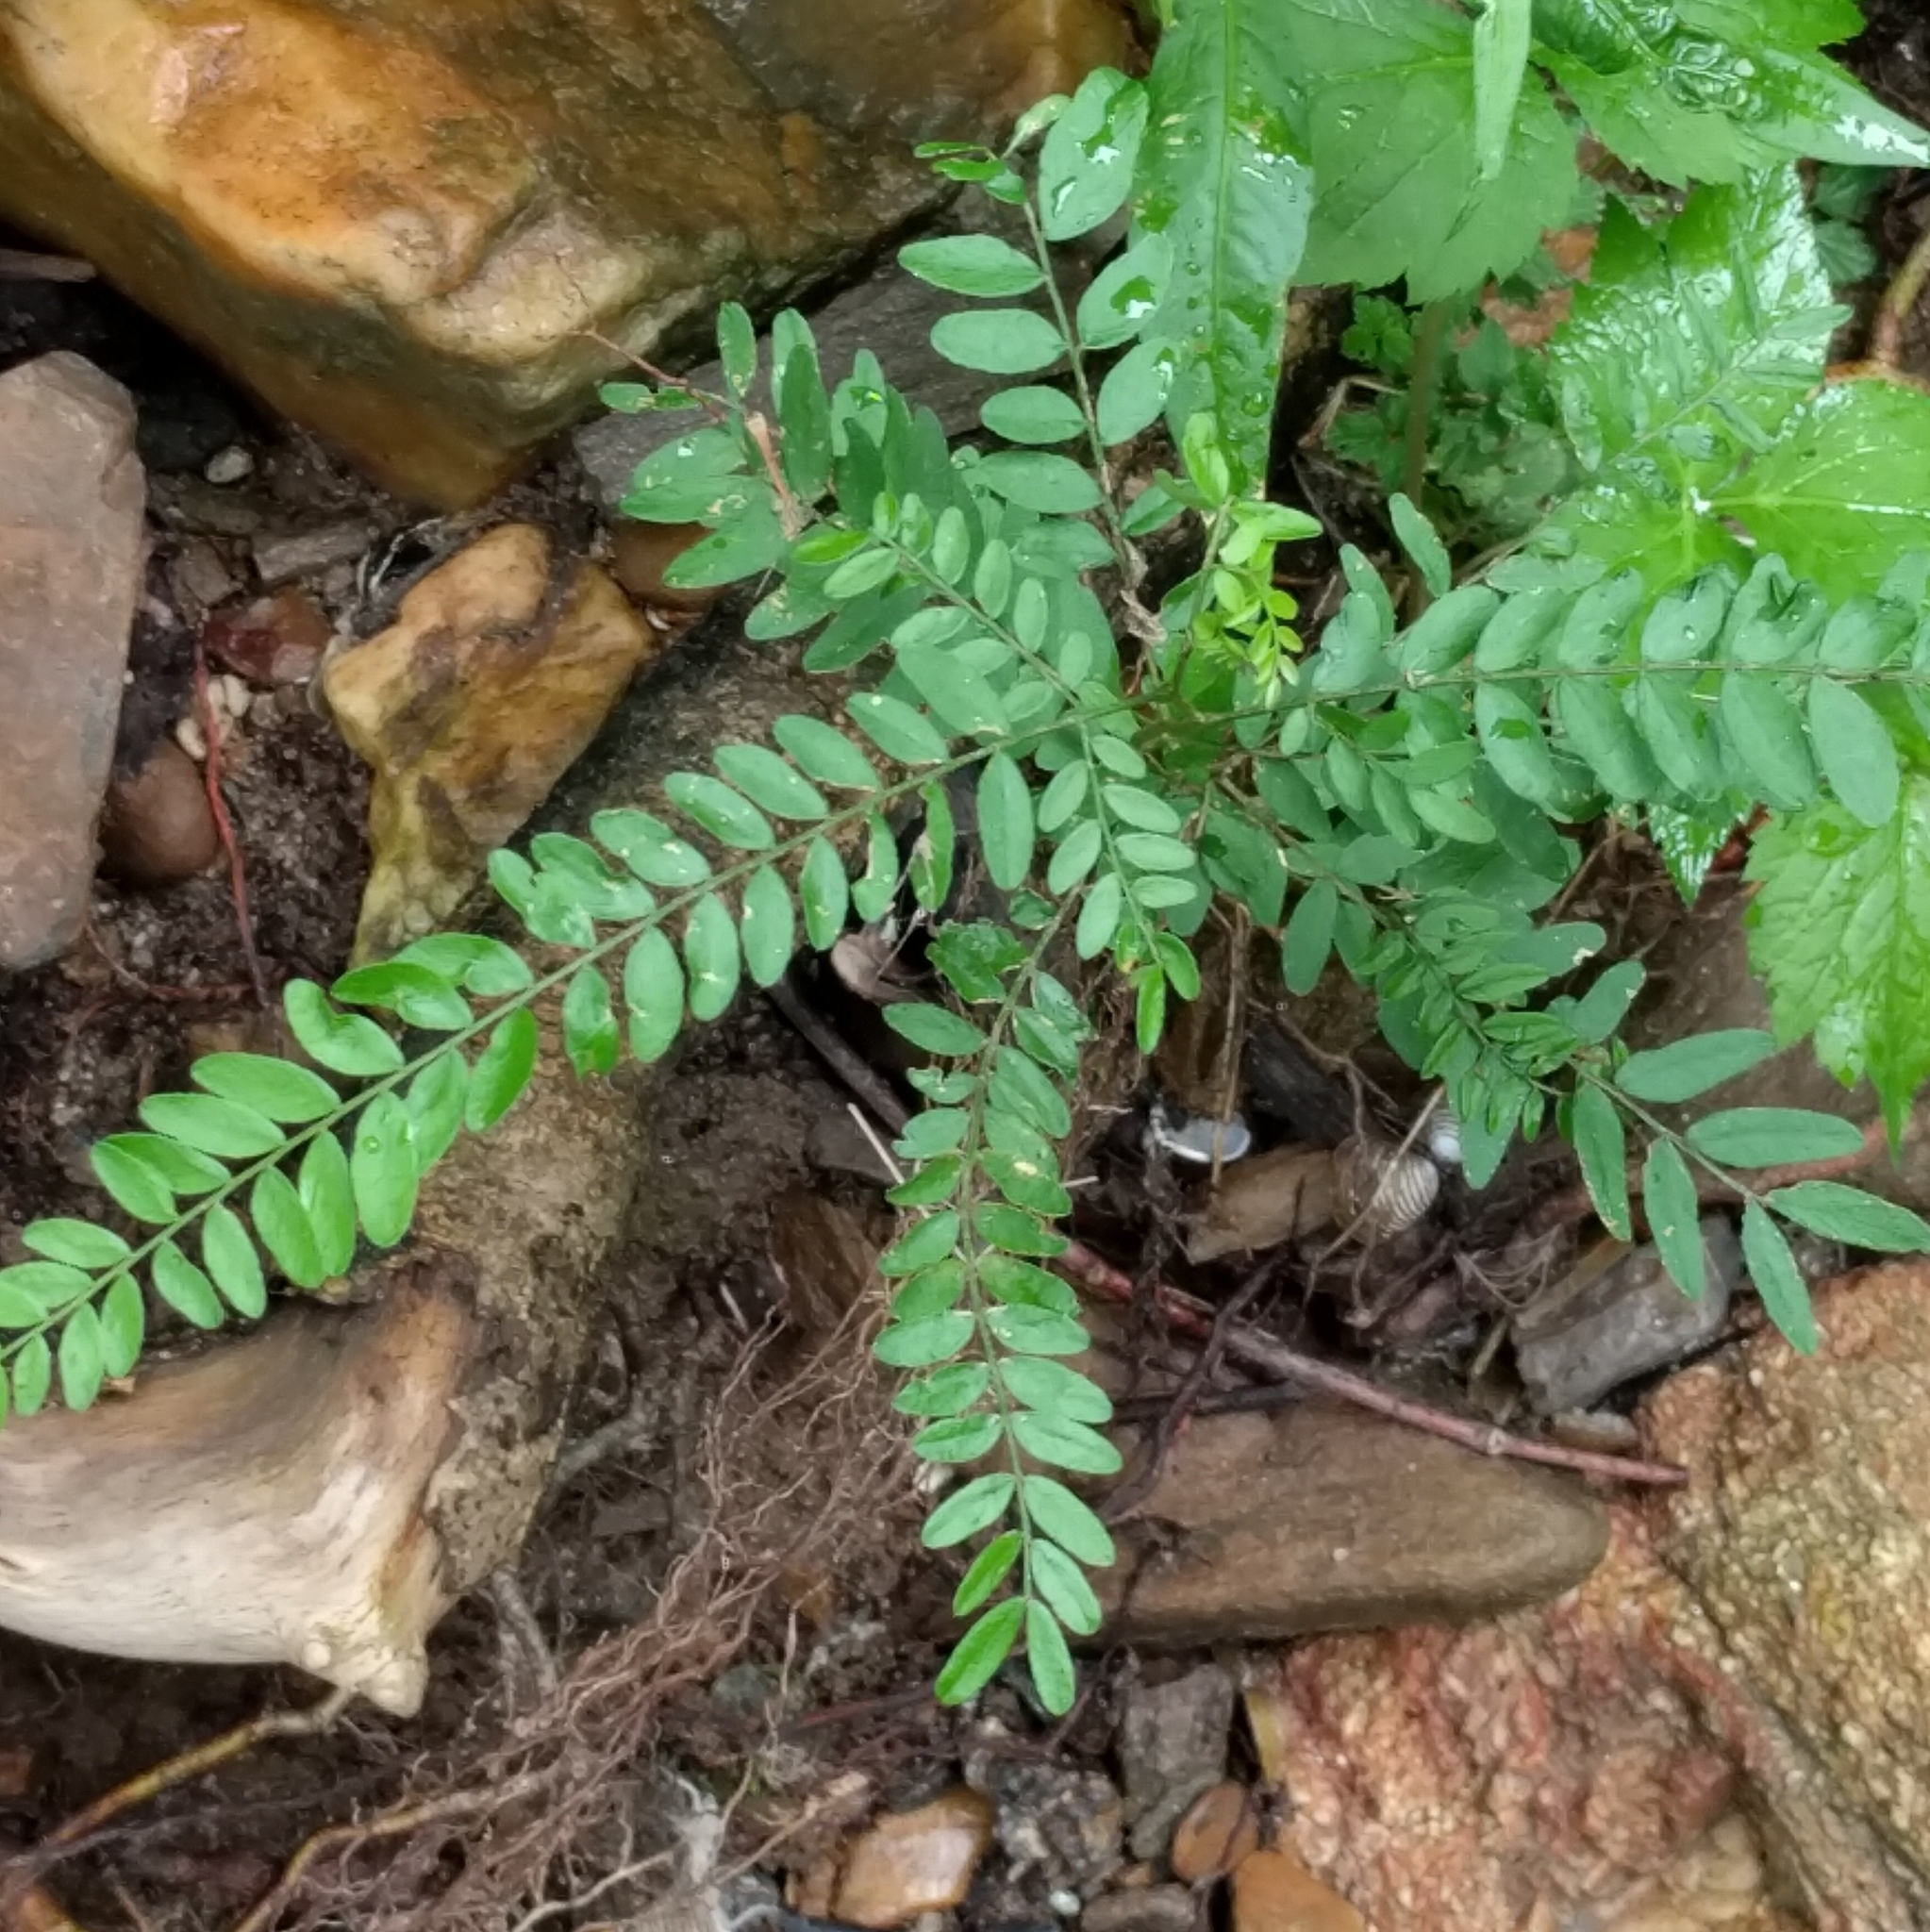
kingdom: Plantae
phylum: Tracheophyta
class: Magnoliopsida
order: Fabales
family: Fabaceae
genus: Gleditsia
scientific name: Gleditsia triacanthos
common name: Common honeylocust
